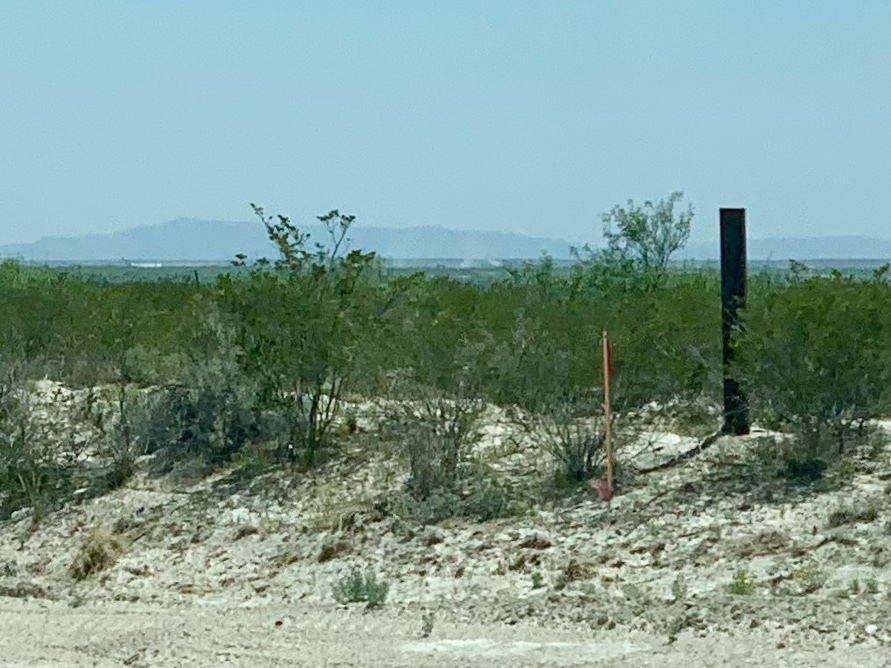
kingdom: Plantae
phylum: Tracheophyta
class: Magnoliopsida
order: Zygophyllales
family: Zygophyllaceae
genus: Larrea
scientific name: Larrea tridentata
